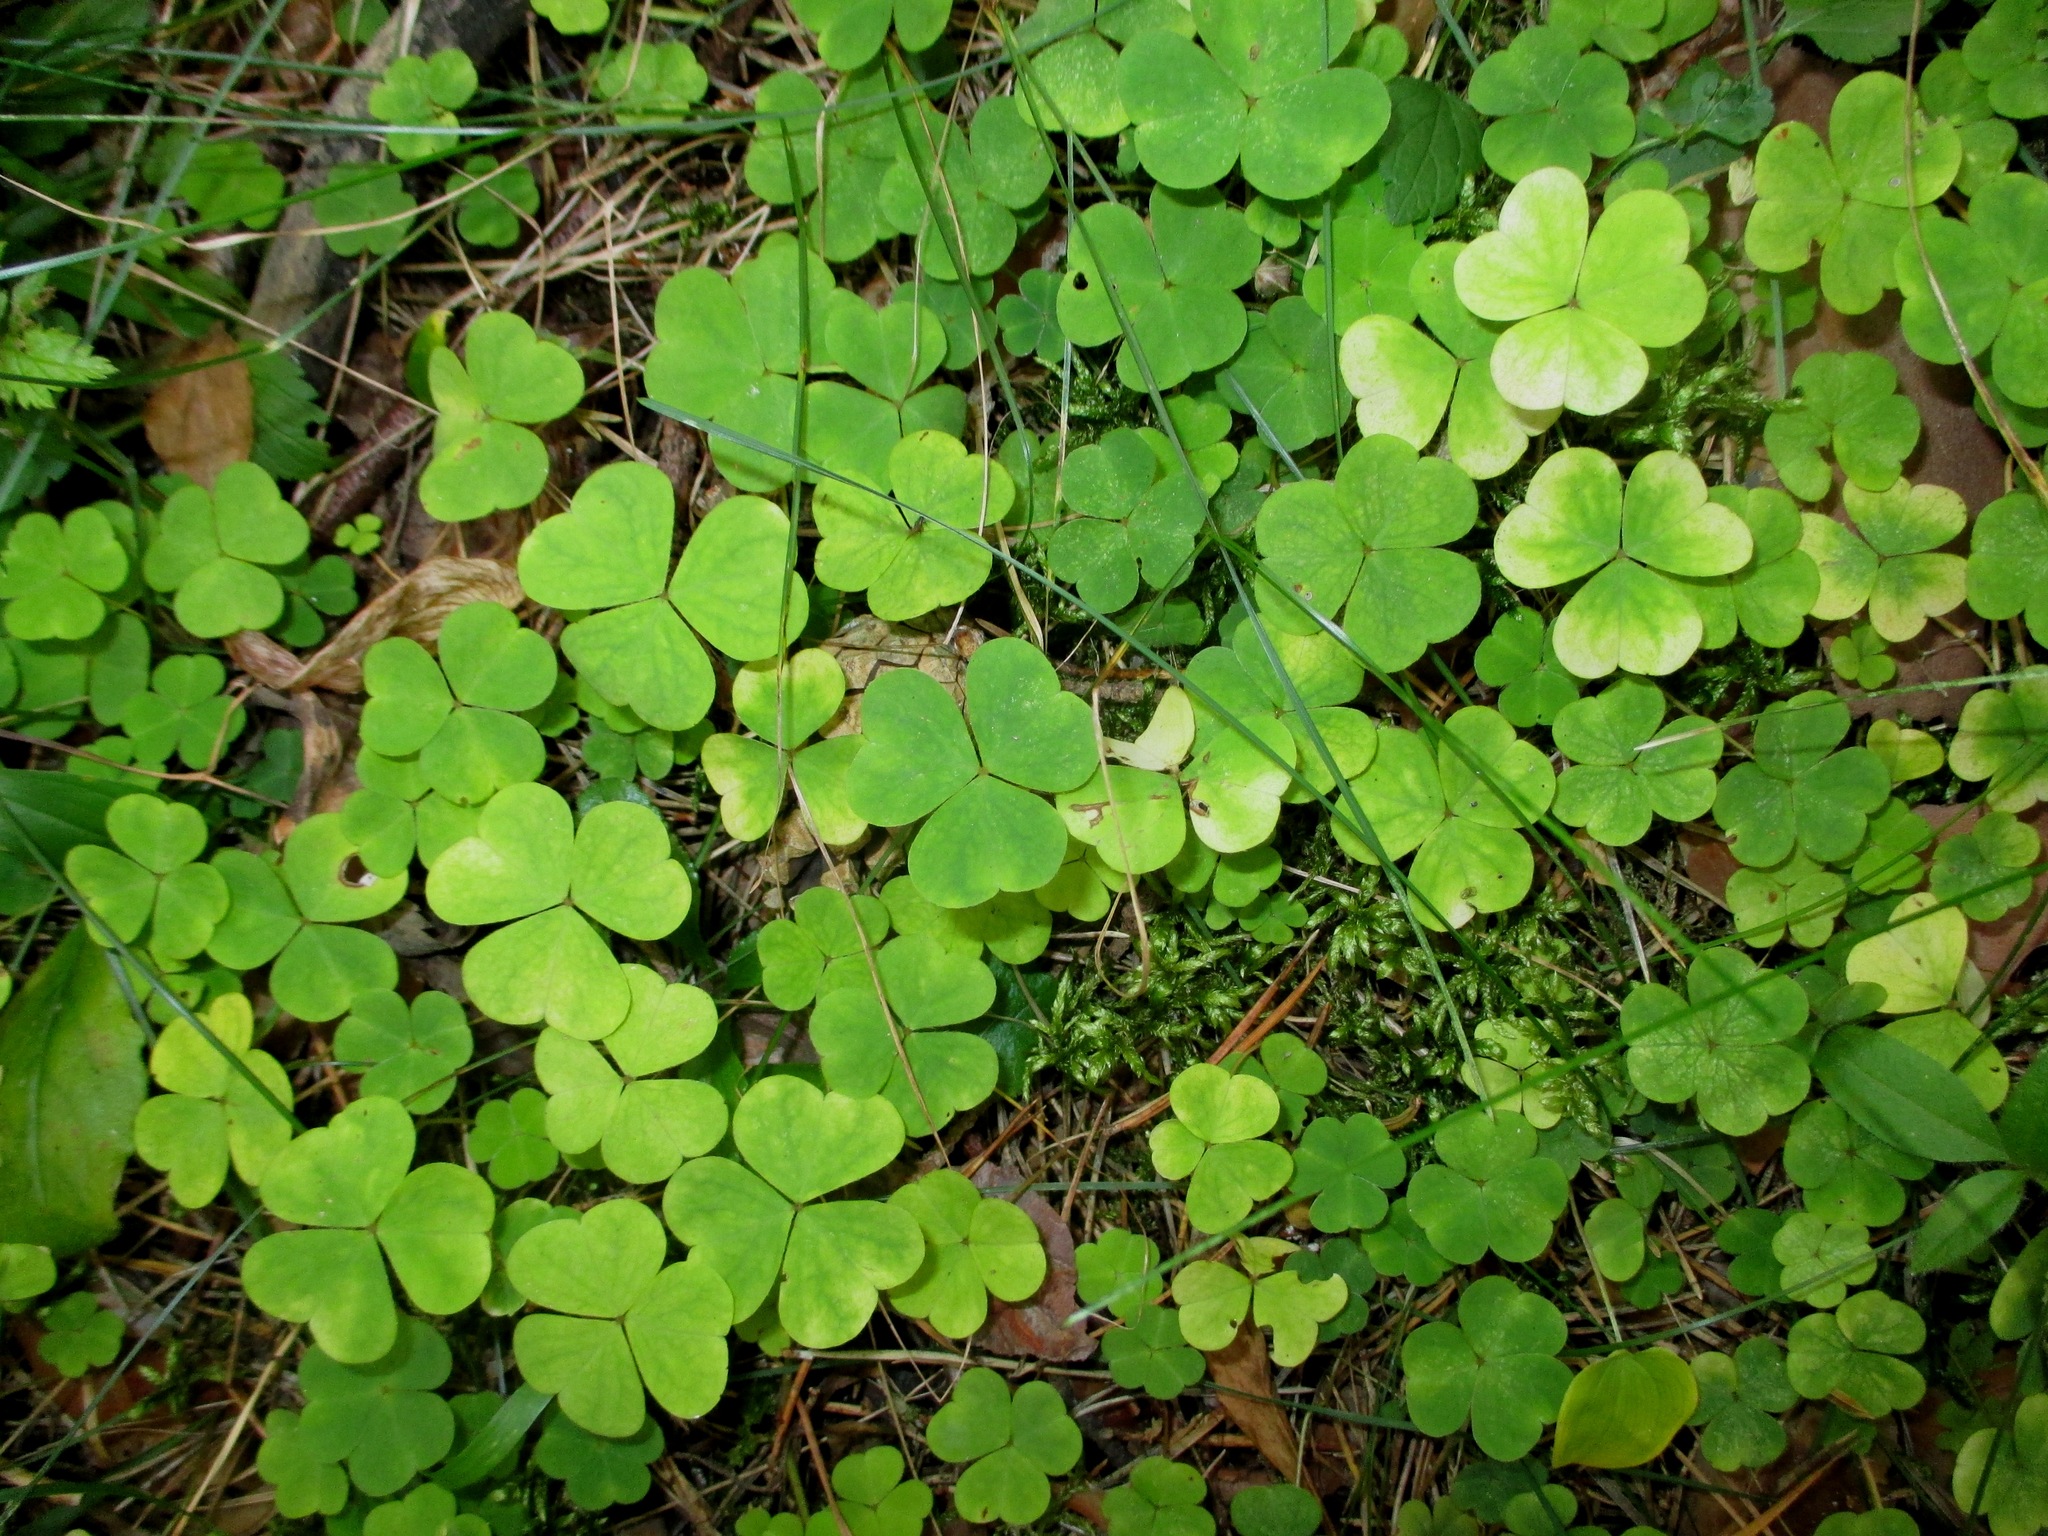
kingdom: Plantae
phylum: Tracheophyta
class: Magnoliopsida
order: Oxalidales
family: Oxalidaceae
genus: Oxalis
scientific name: Oxalis acetosella
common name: Wood-sorrel
